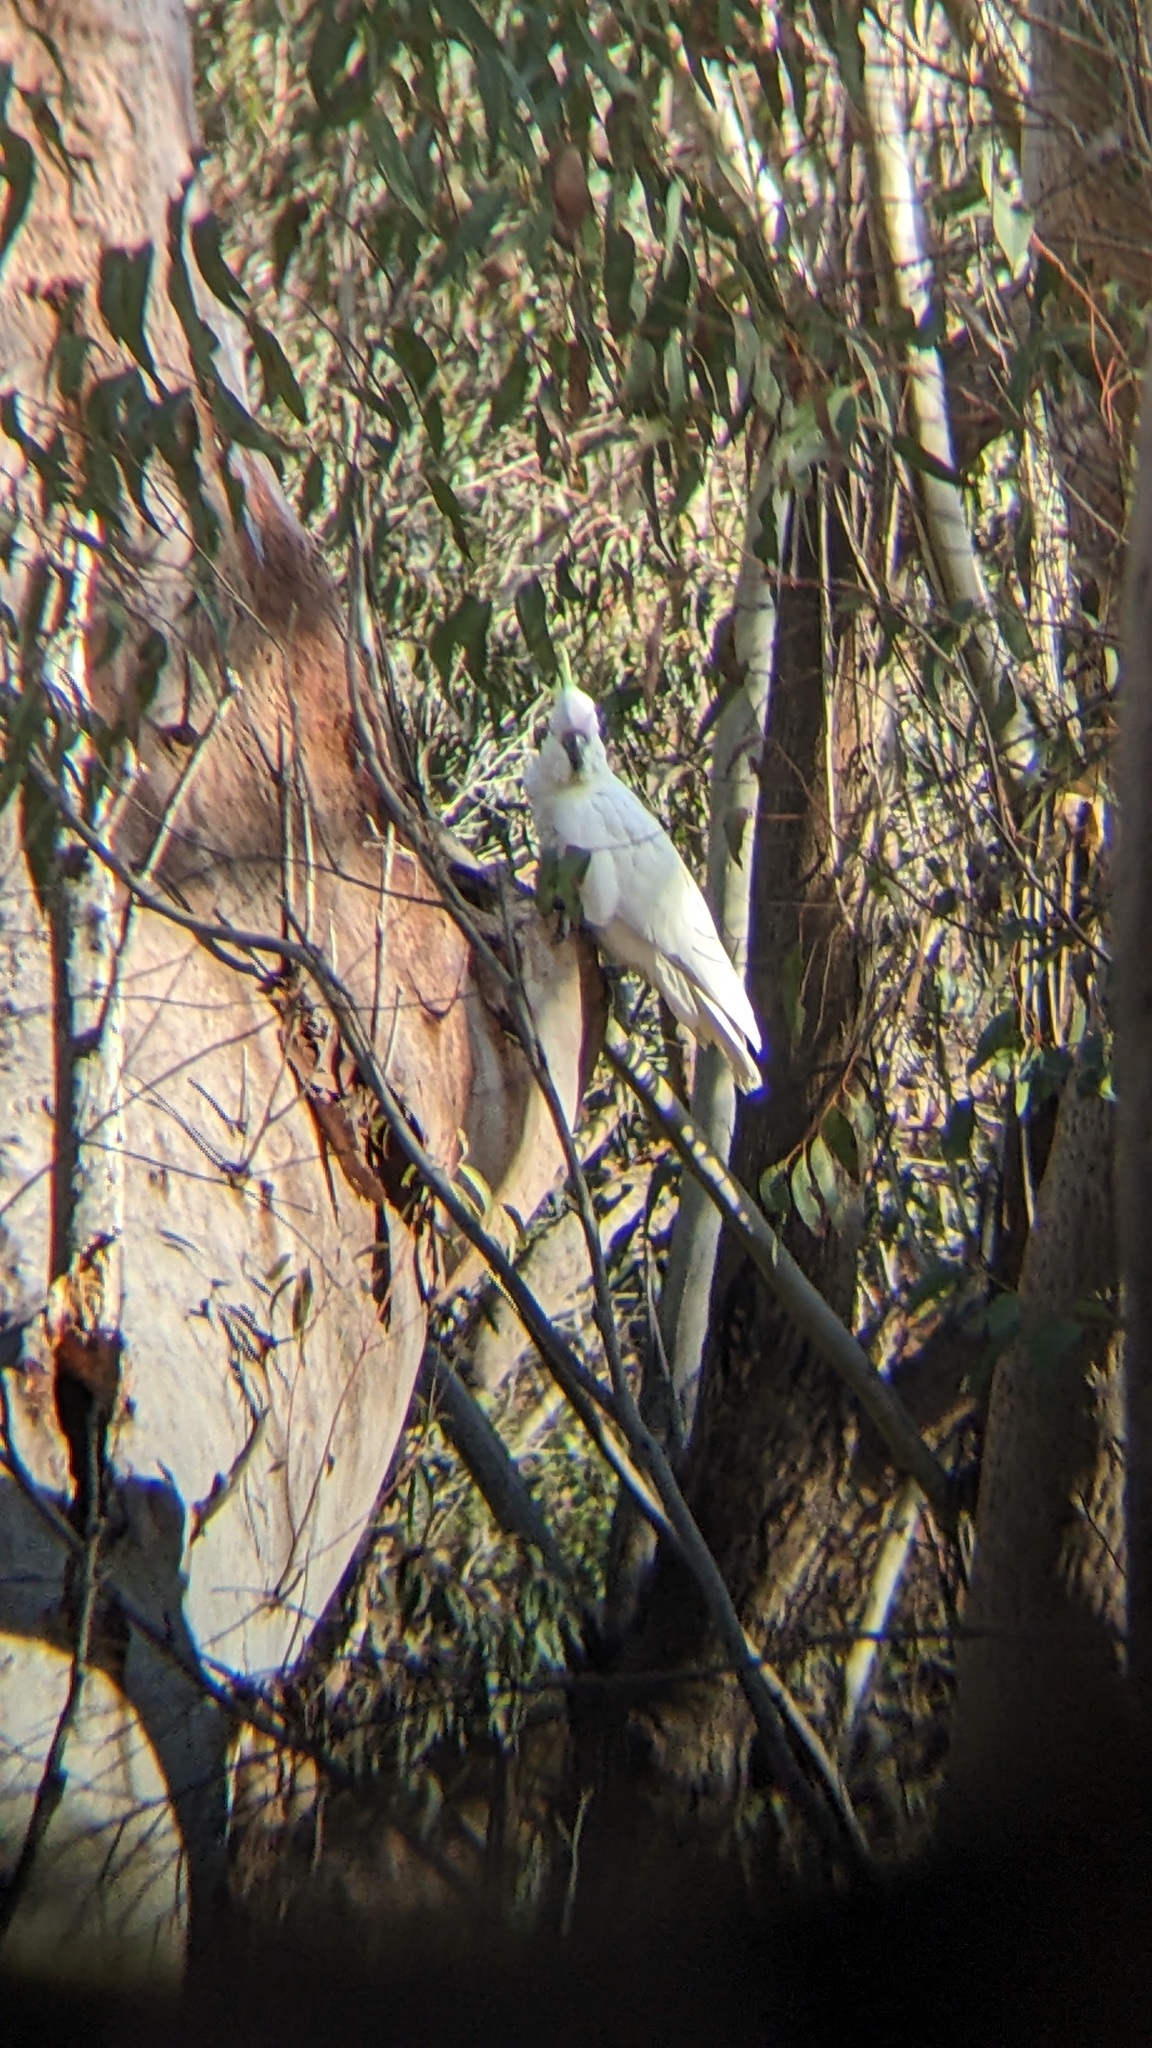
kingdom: Animalia
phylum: Chordata
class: Aves
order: Psittaciformes
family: Psittacidae
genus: Cacatua
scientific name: Cacatua galerita
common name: Sulphur-crested cockatoo
